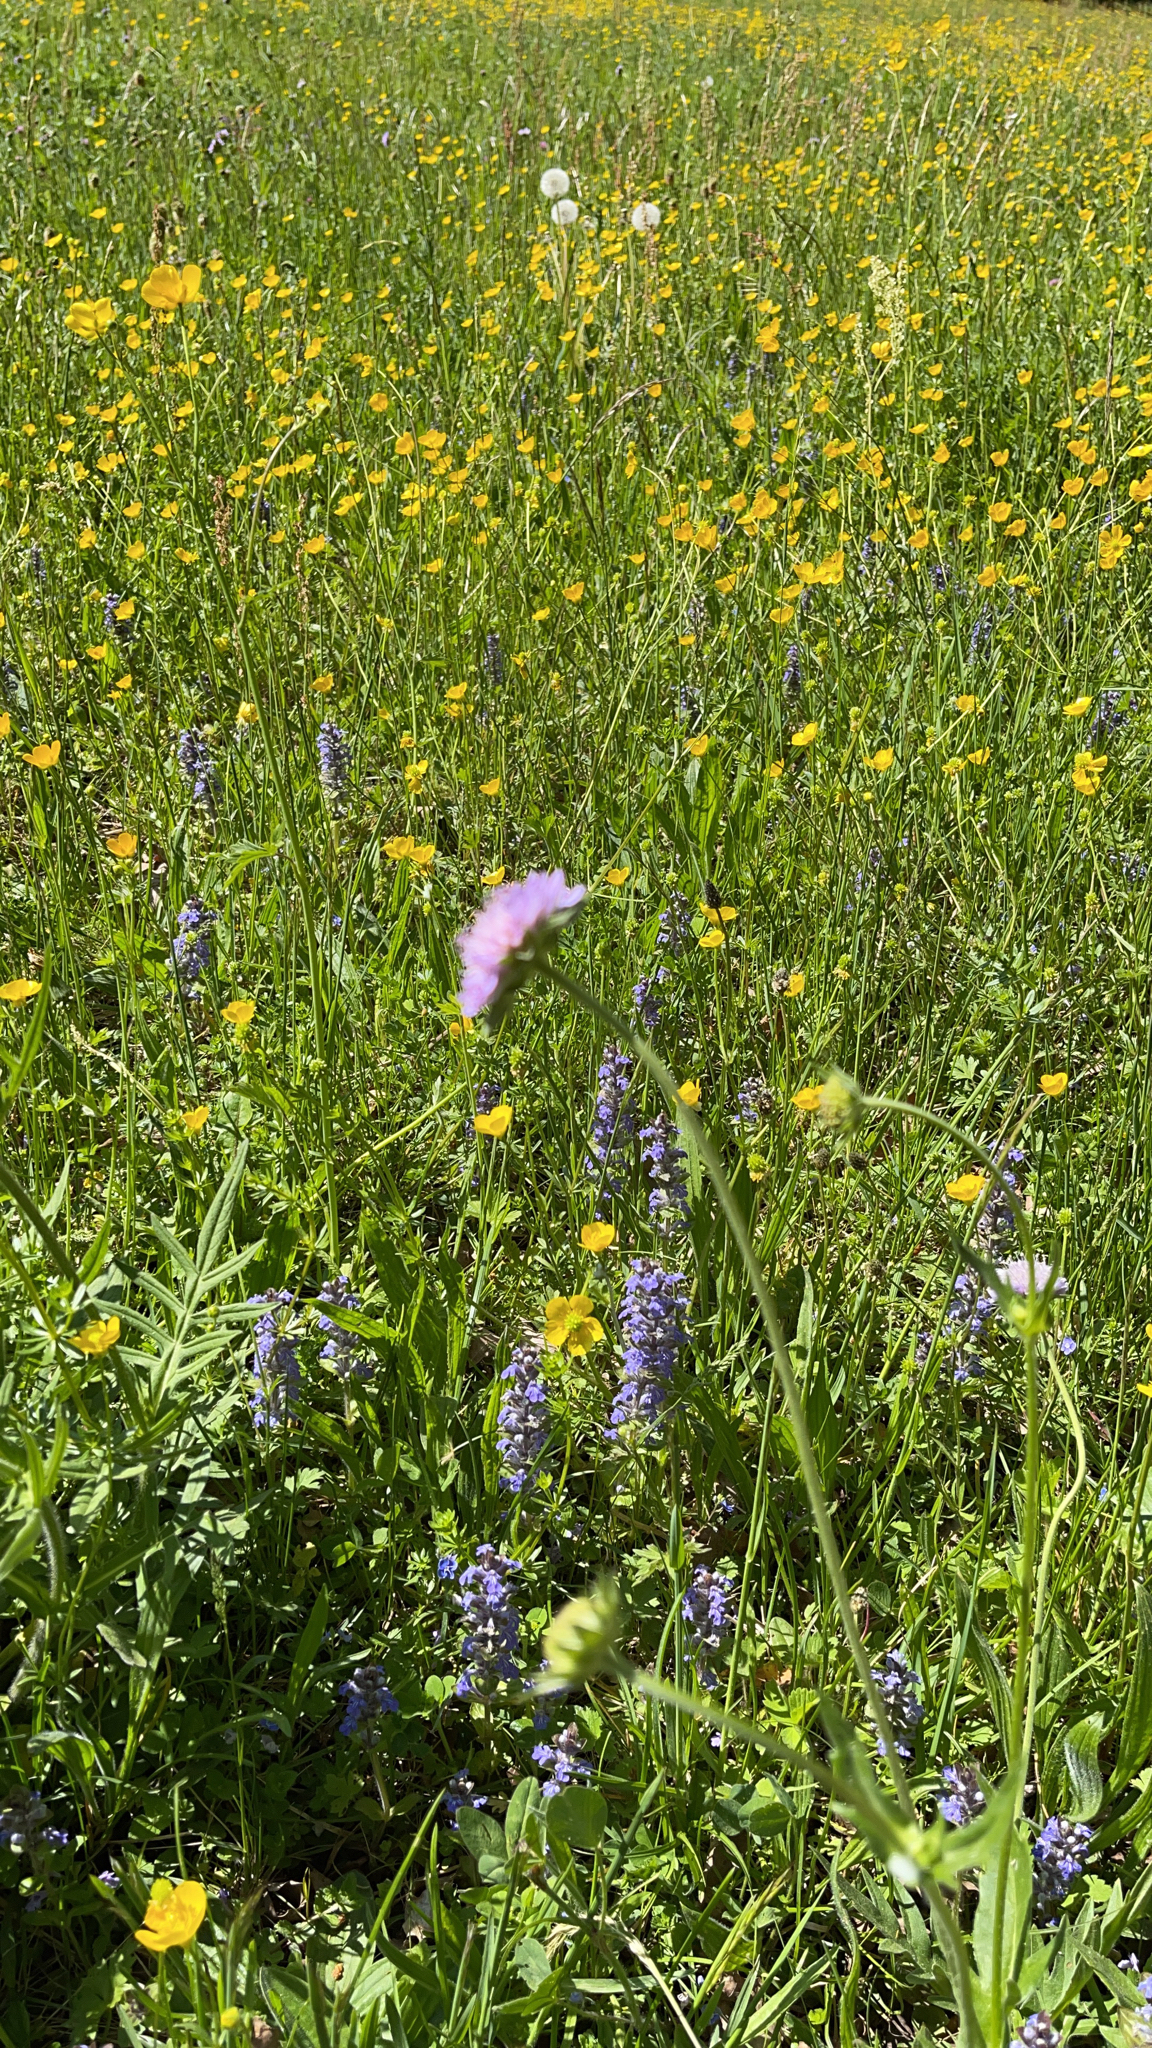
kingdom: Plantae
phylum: Tracheophyta
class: Magnoliopsida
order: Dipsacales
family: Caprifoliaceae
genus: Knautia
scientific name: Knautia arvensis
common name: Field scabiosa
